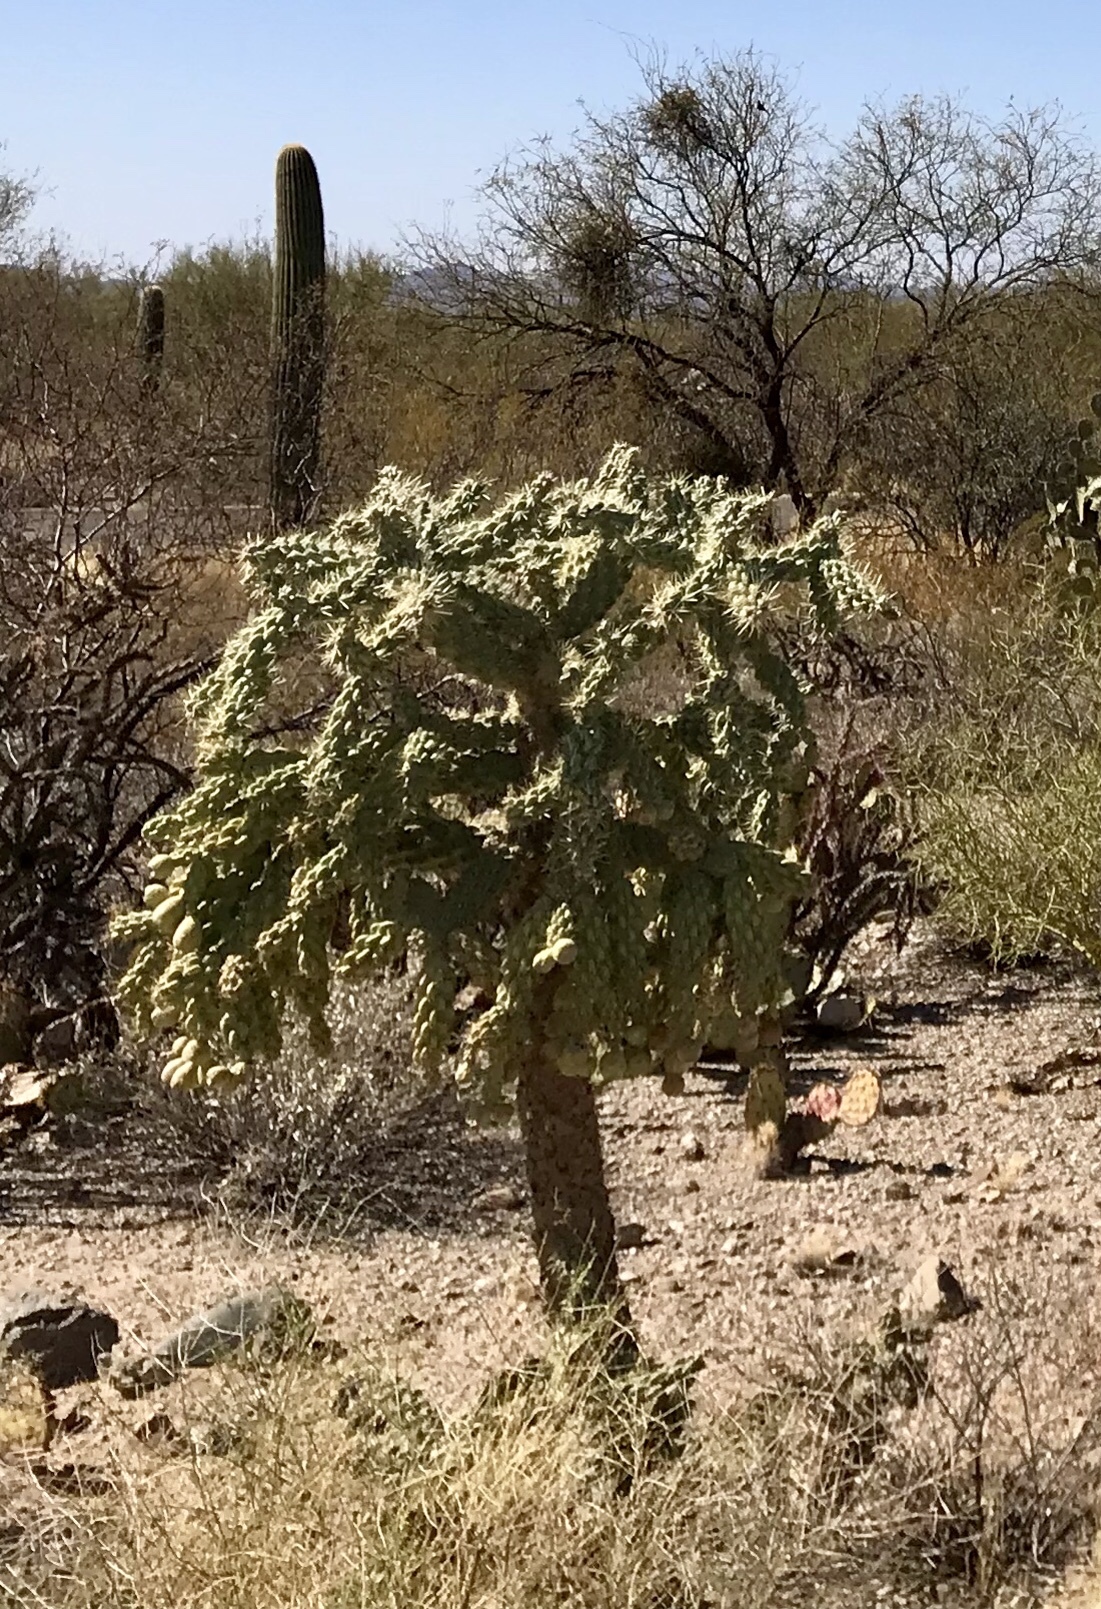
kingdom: Plantae
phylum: Tracheophyta
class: Magnoliopsida
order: Caryophyllales
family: Cactaceae
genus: Cylindropuntia
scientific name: Cylindropuntia fulgida
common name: Jumping cholla
